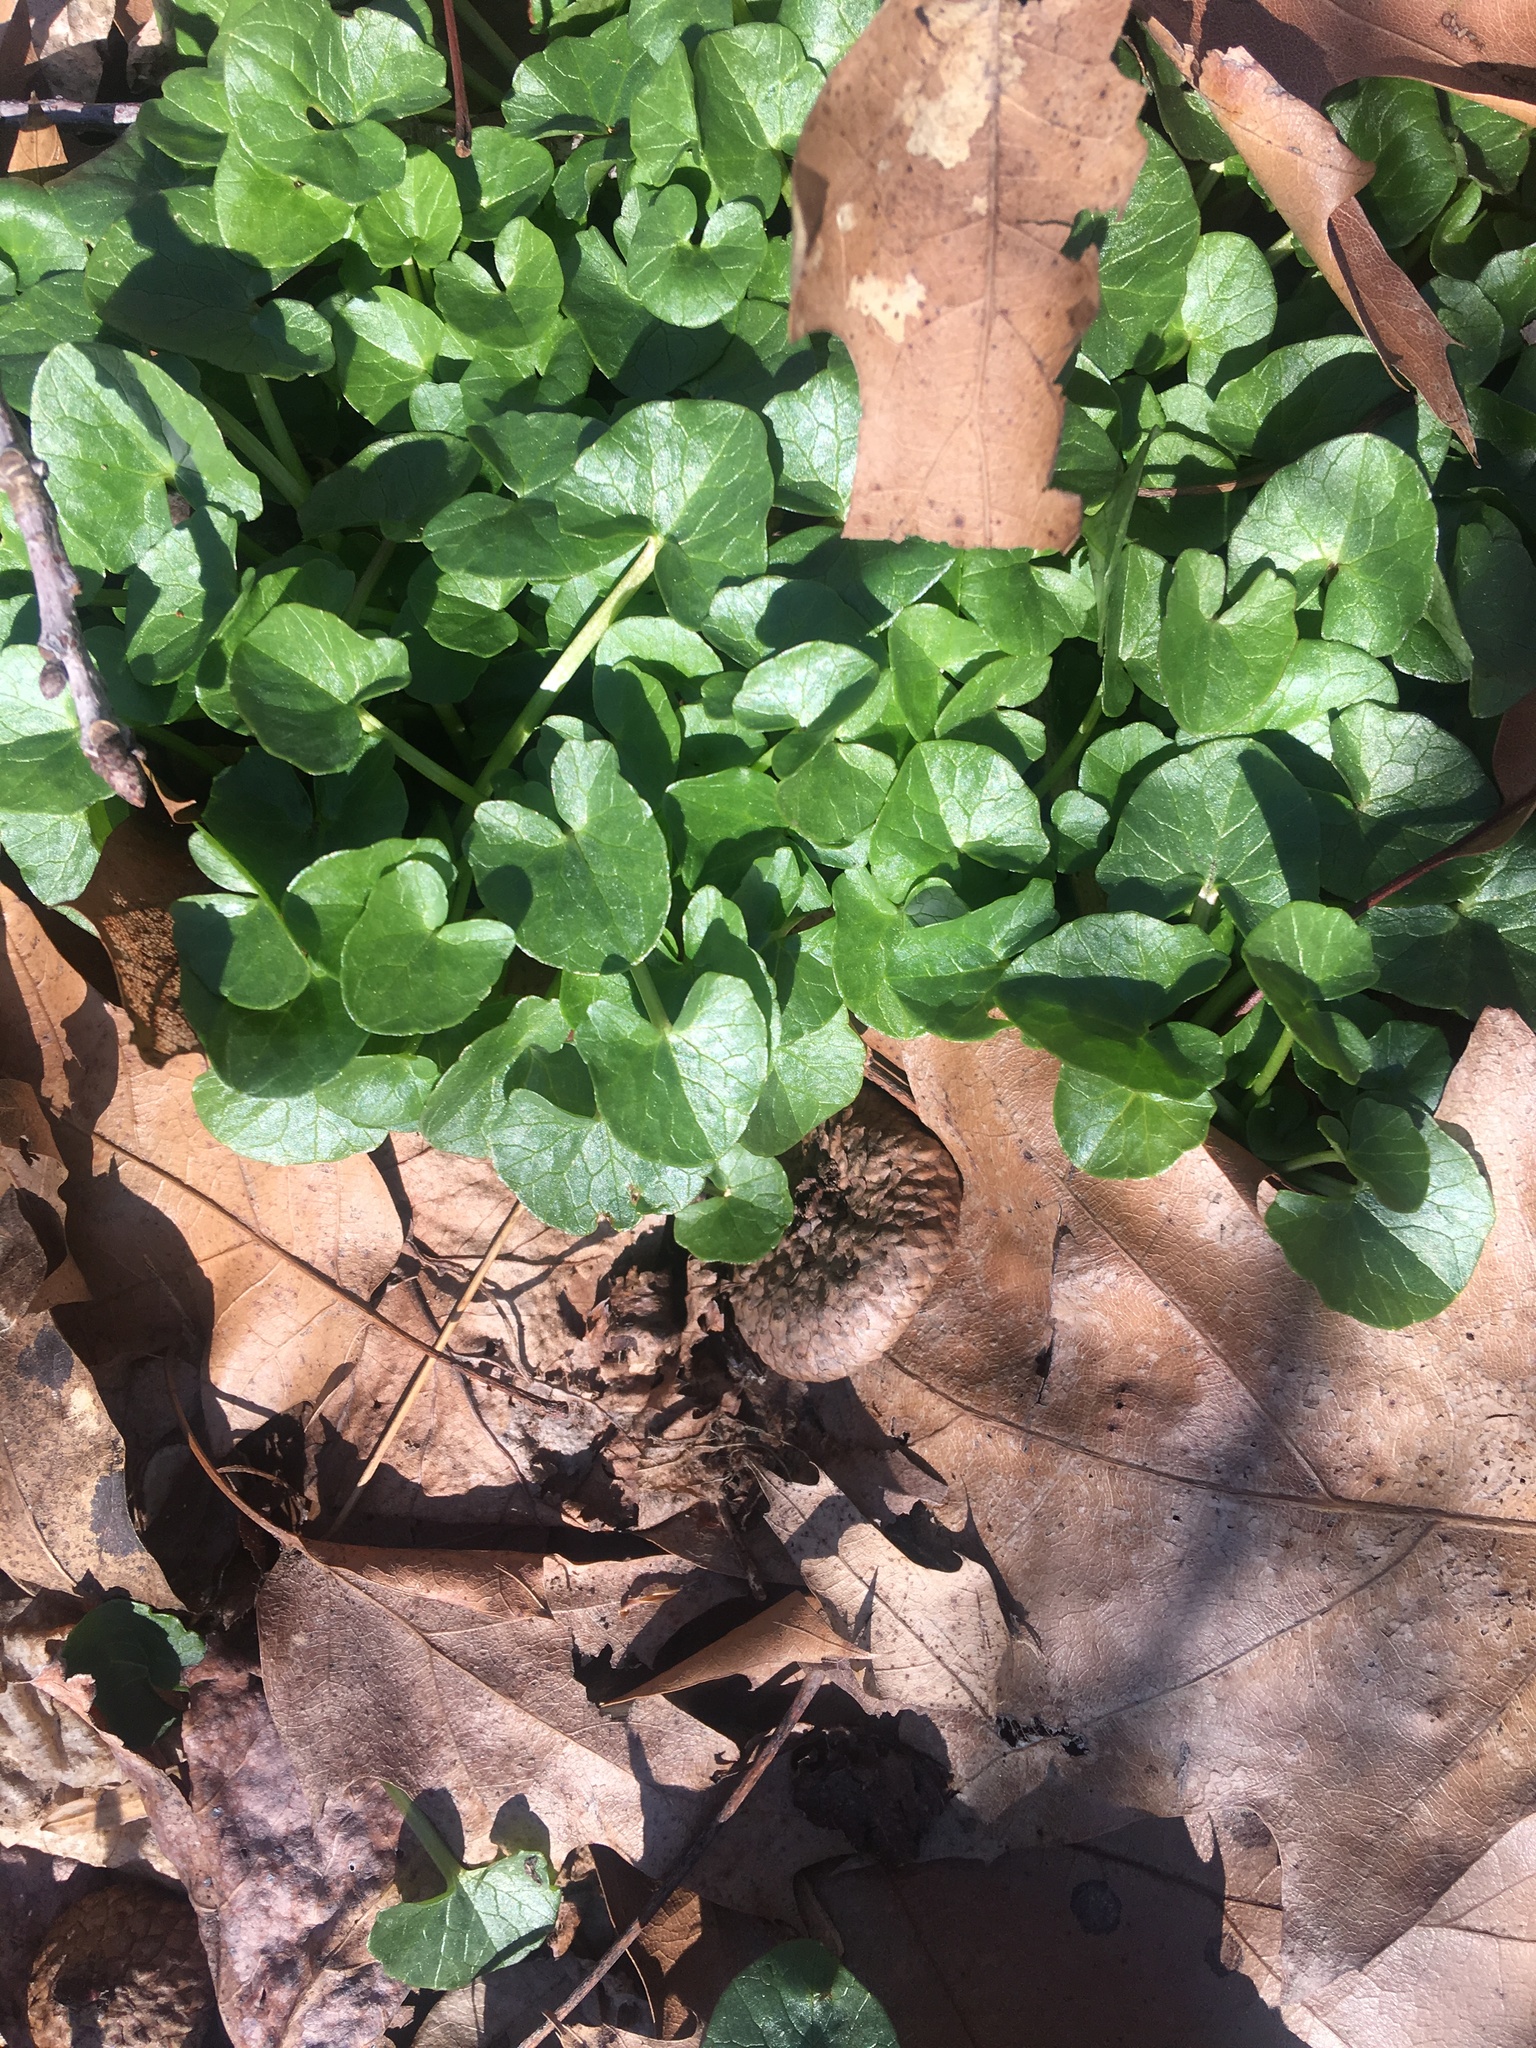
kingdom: Plantae
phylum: Tracheophyta
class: Magnoliopsida
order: Ranunculales
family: Ranunculaceae
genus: Ficaria
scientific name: Ficaria verna
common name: Lesser celandine
